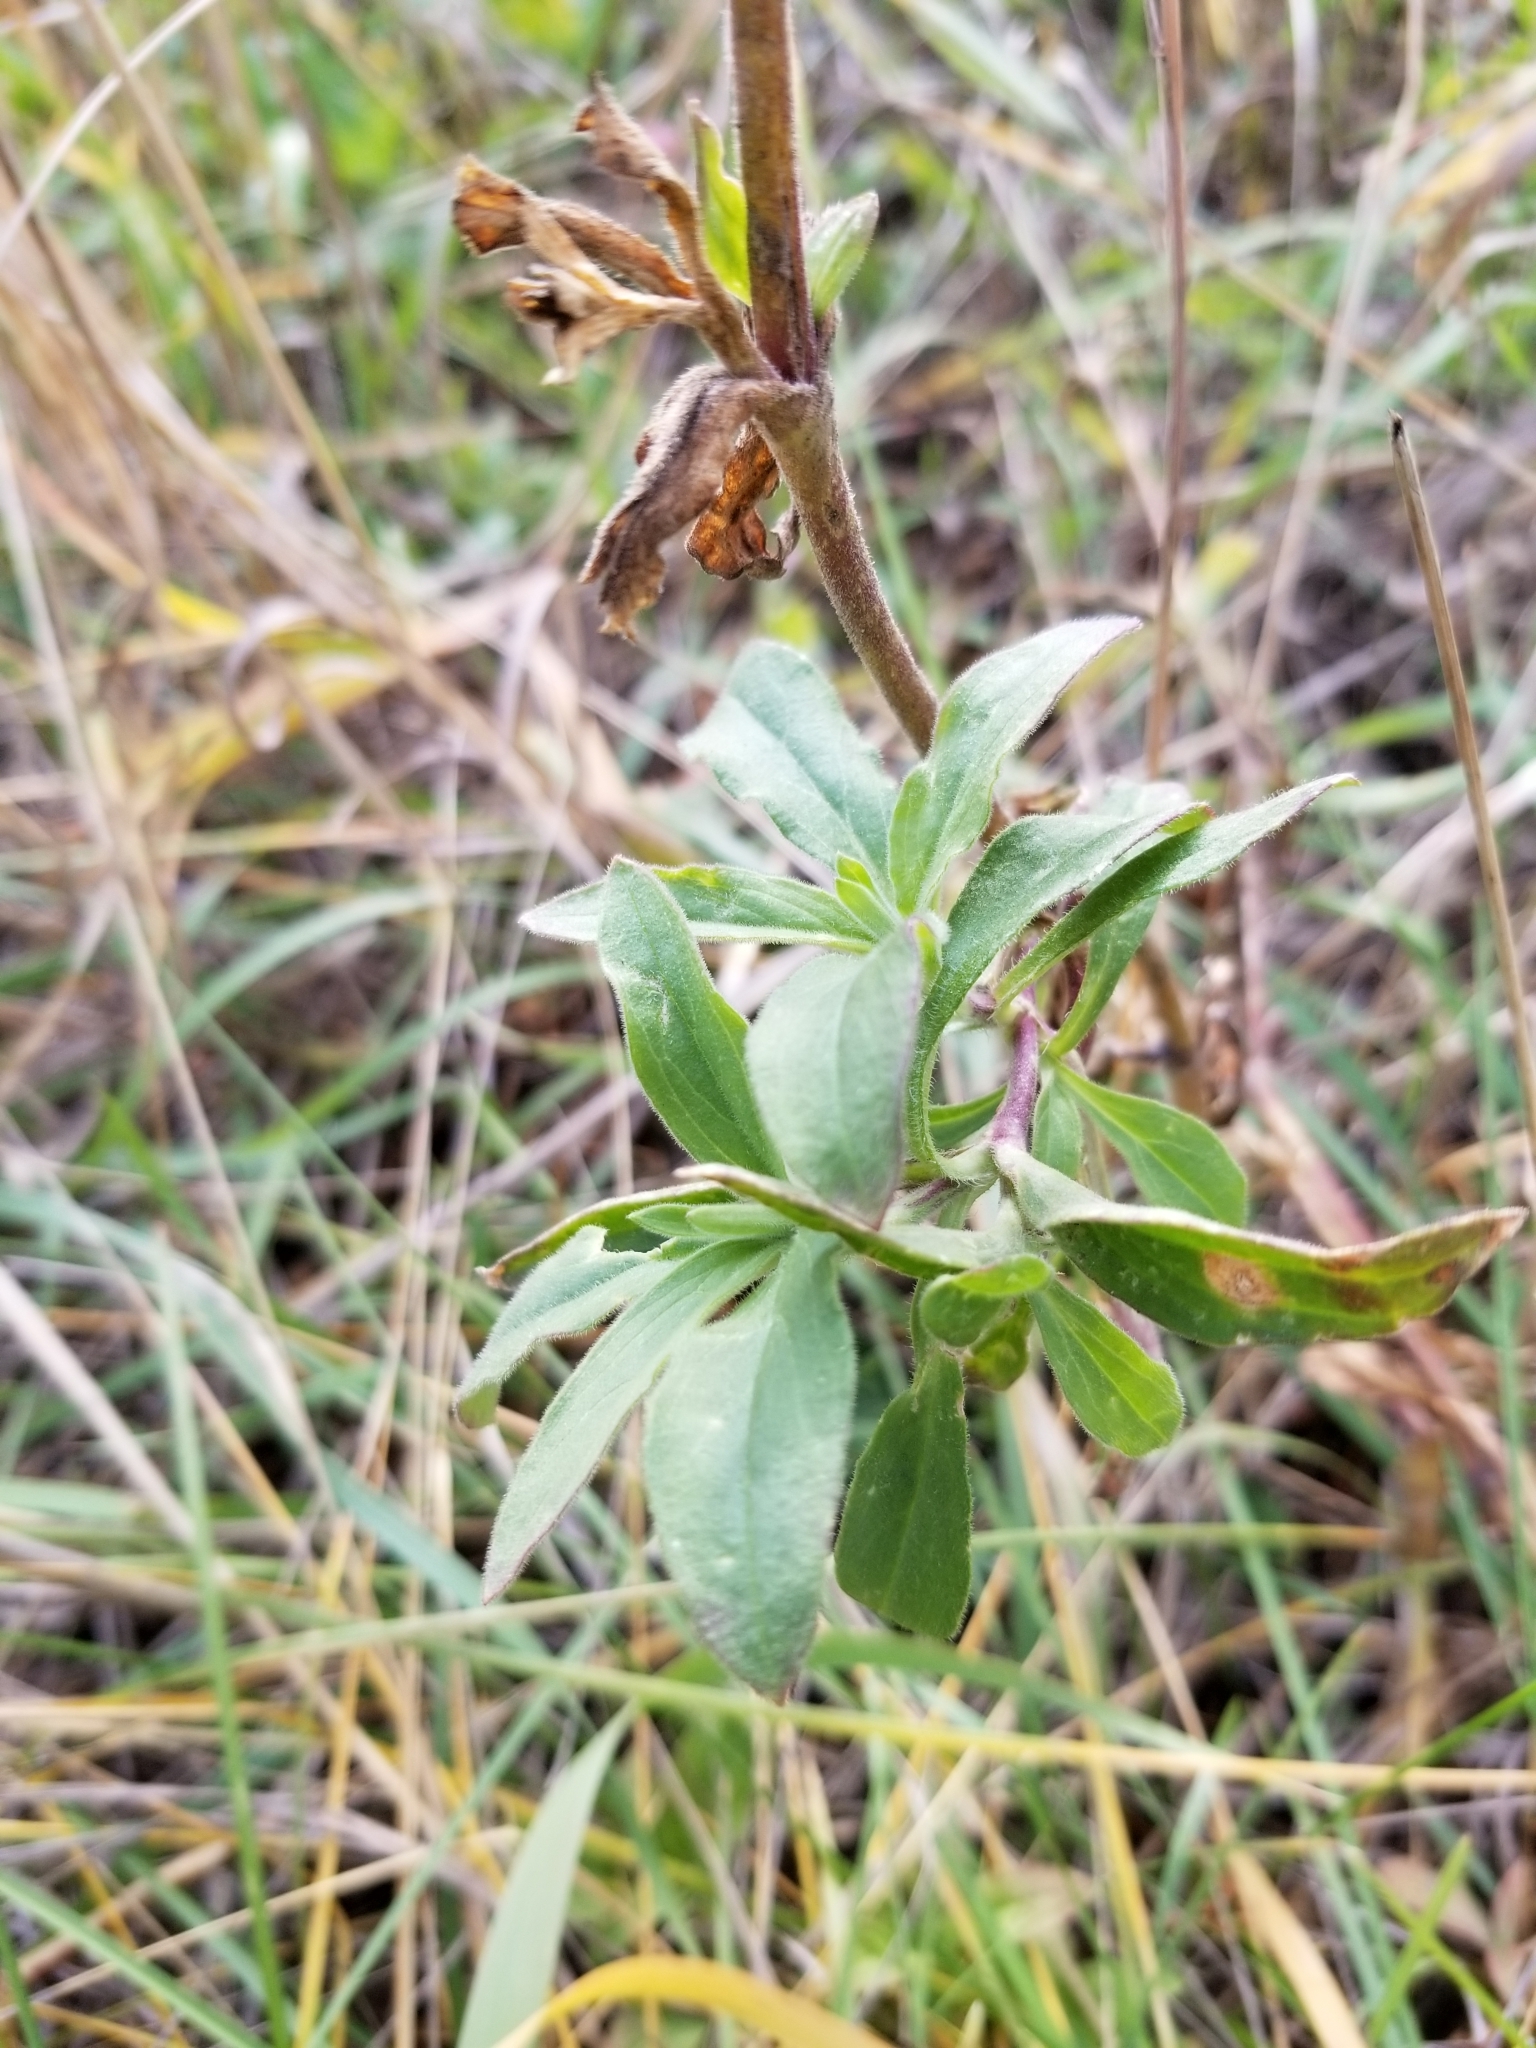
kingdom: Plantae
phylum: Tracheophyta
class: Magnoliopsida
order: Caryophyllales
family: Caryophyllaceae
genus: Silene
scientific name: Silene latifolia
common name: White campion
